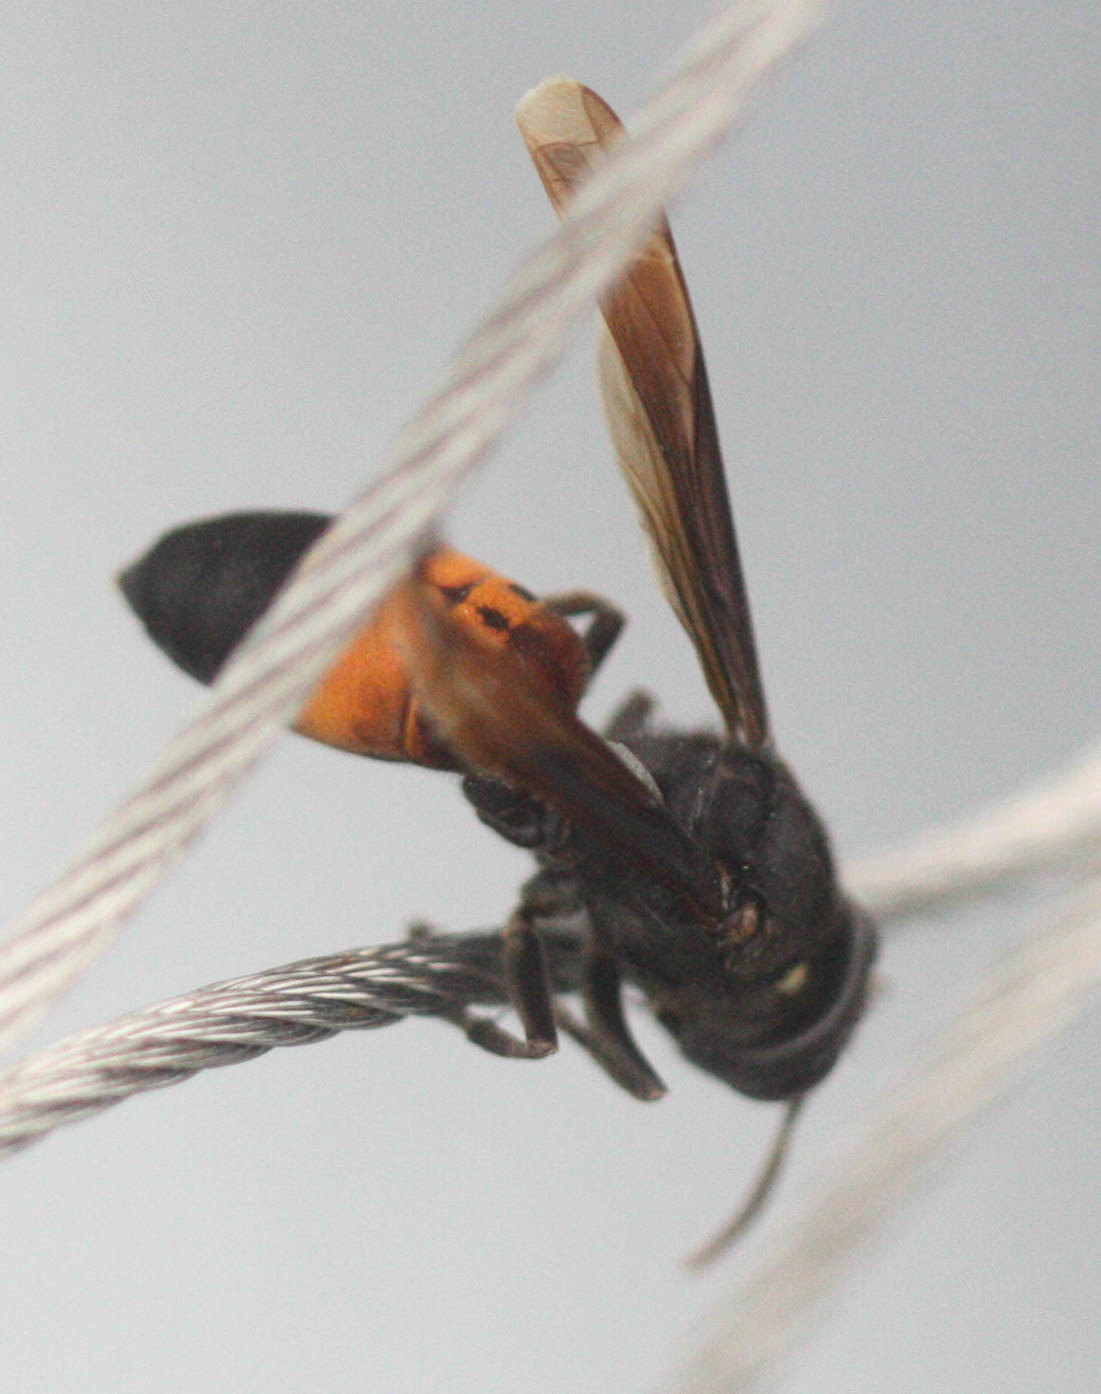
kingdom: Animalia
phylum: Arthropoda
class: Insecta
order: Hymenoptera
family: Vespidae
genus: Vespa
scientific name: Vespa affinis
